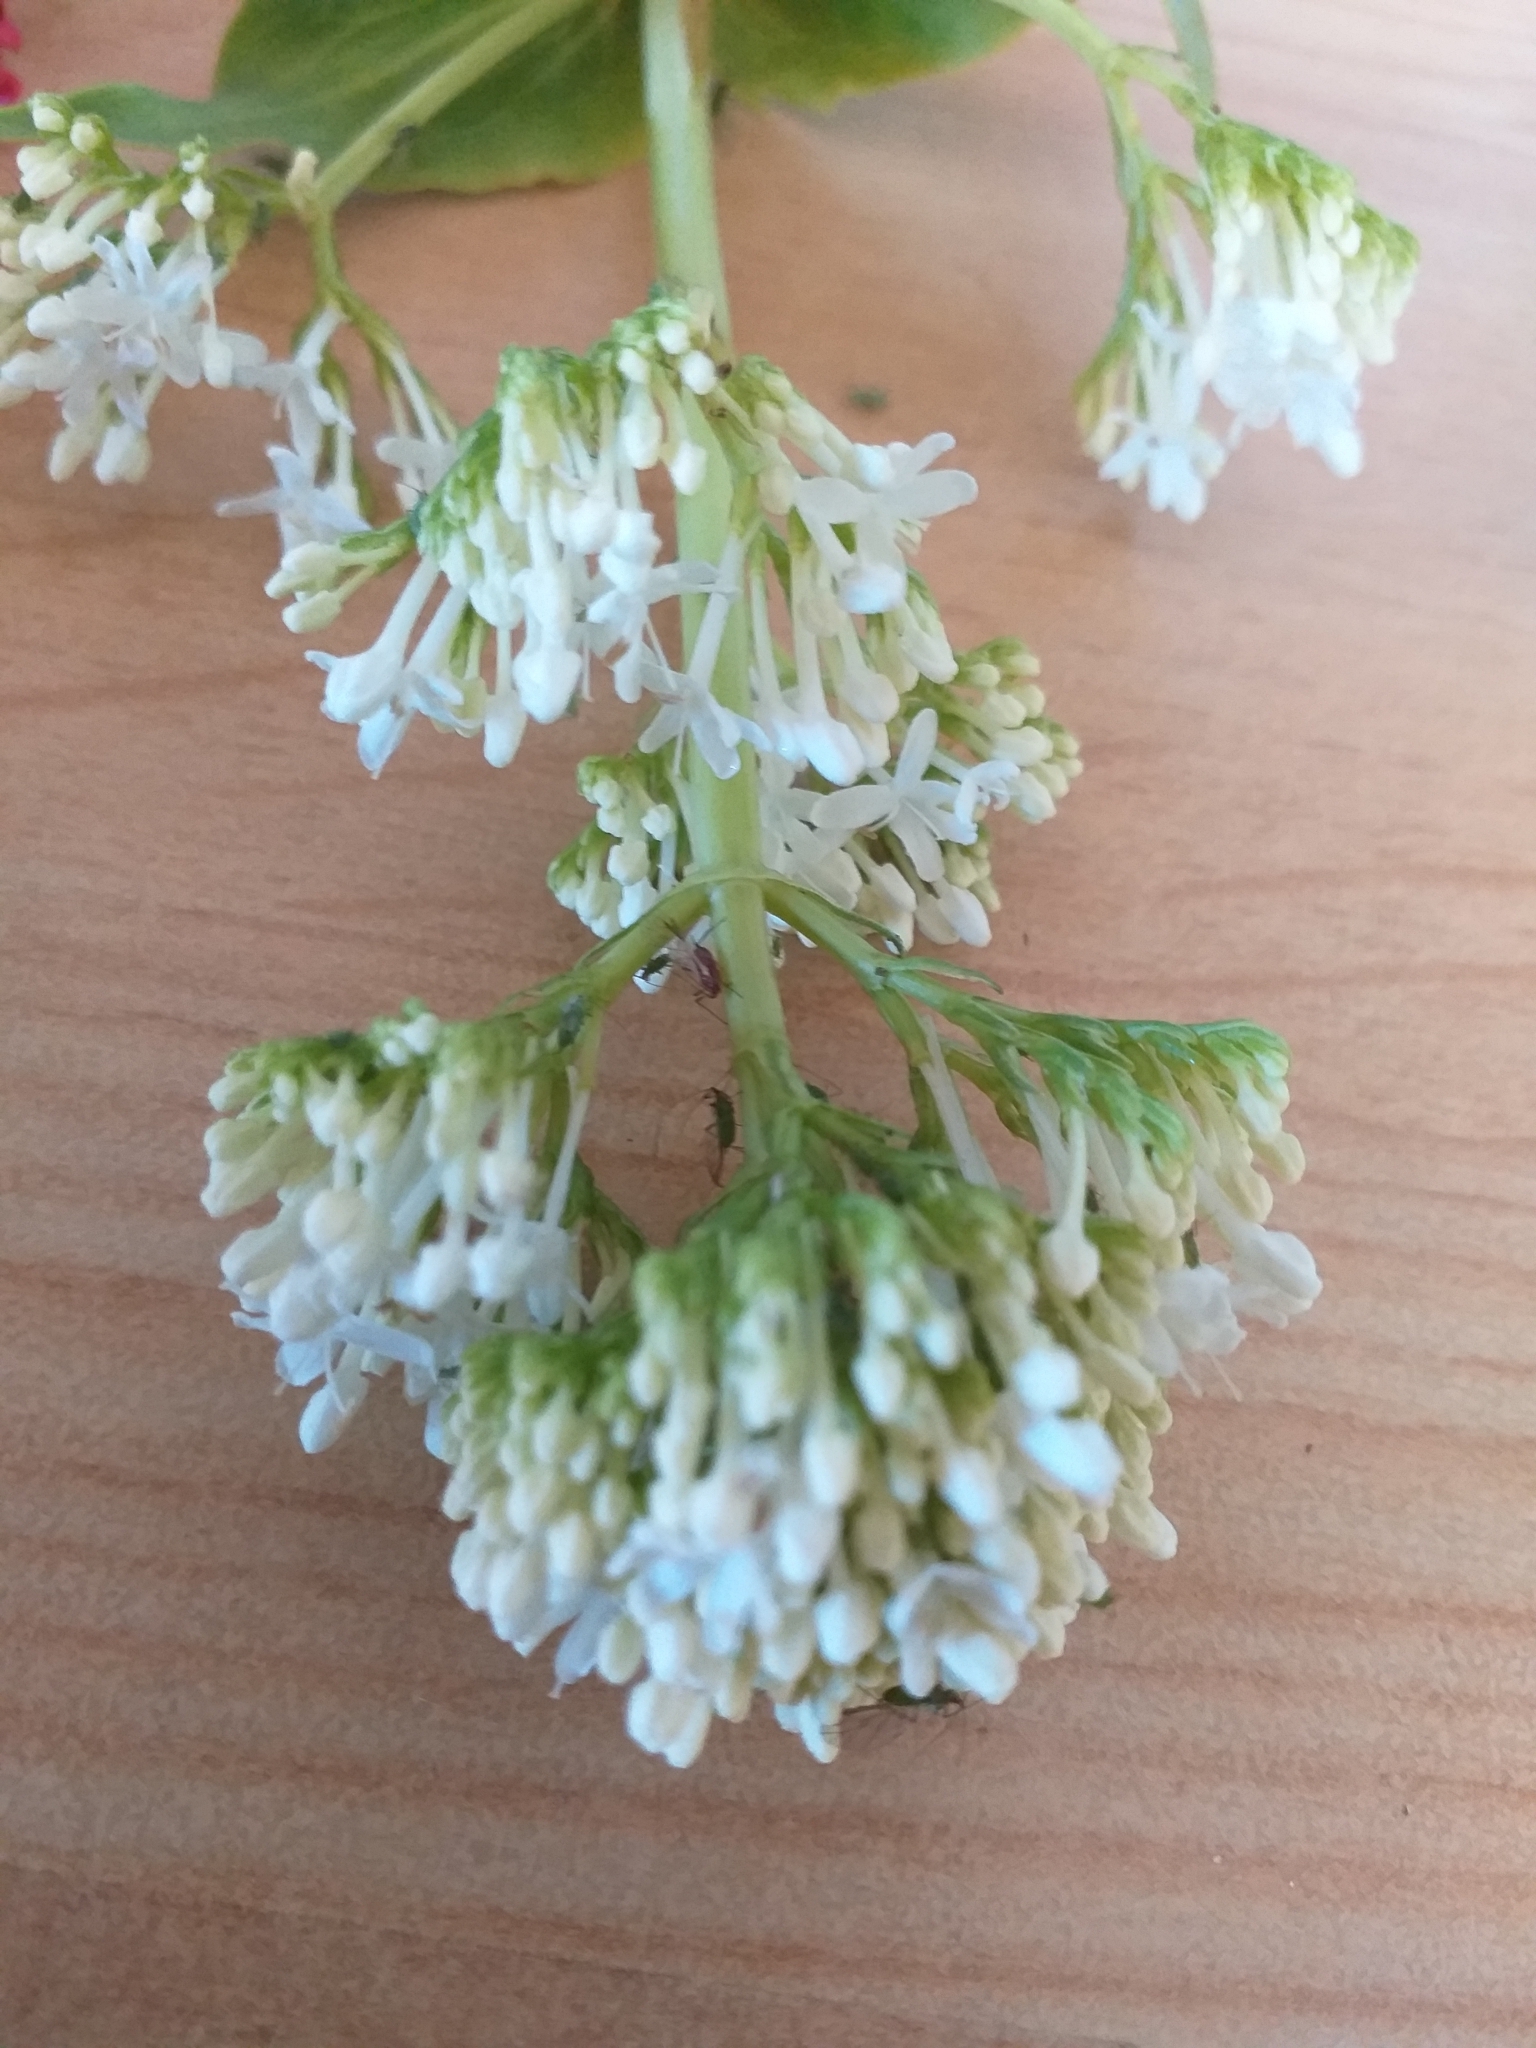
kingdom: Plantae
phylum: Tracheophyta
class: Magnoliopsida
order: Dipsacales
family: Caprifoliaceae
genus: Centranthus
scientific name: Centranthus ruber
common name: Red valerian
